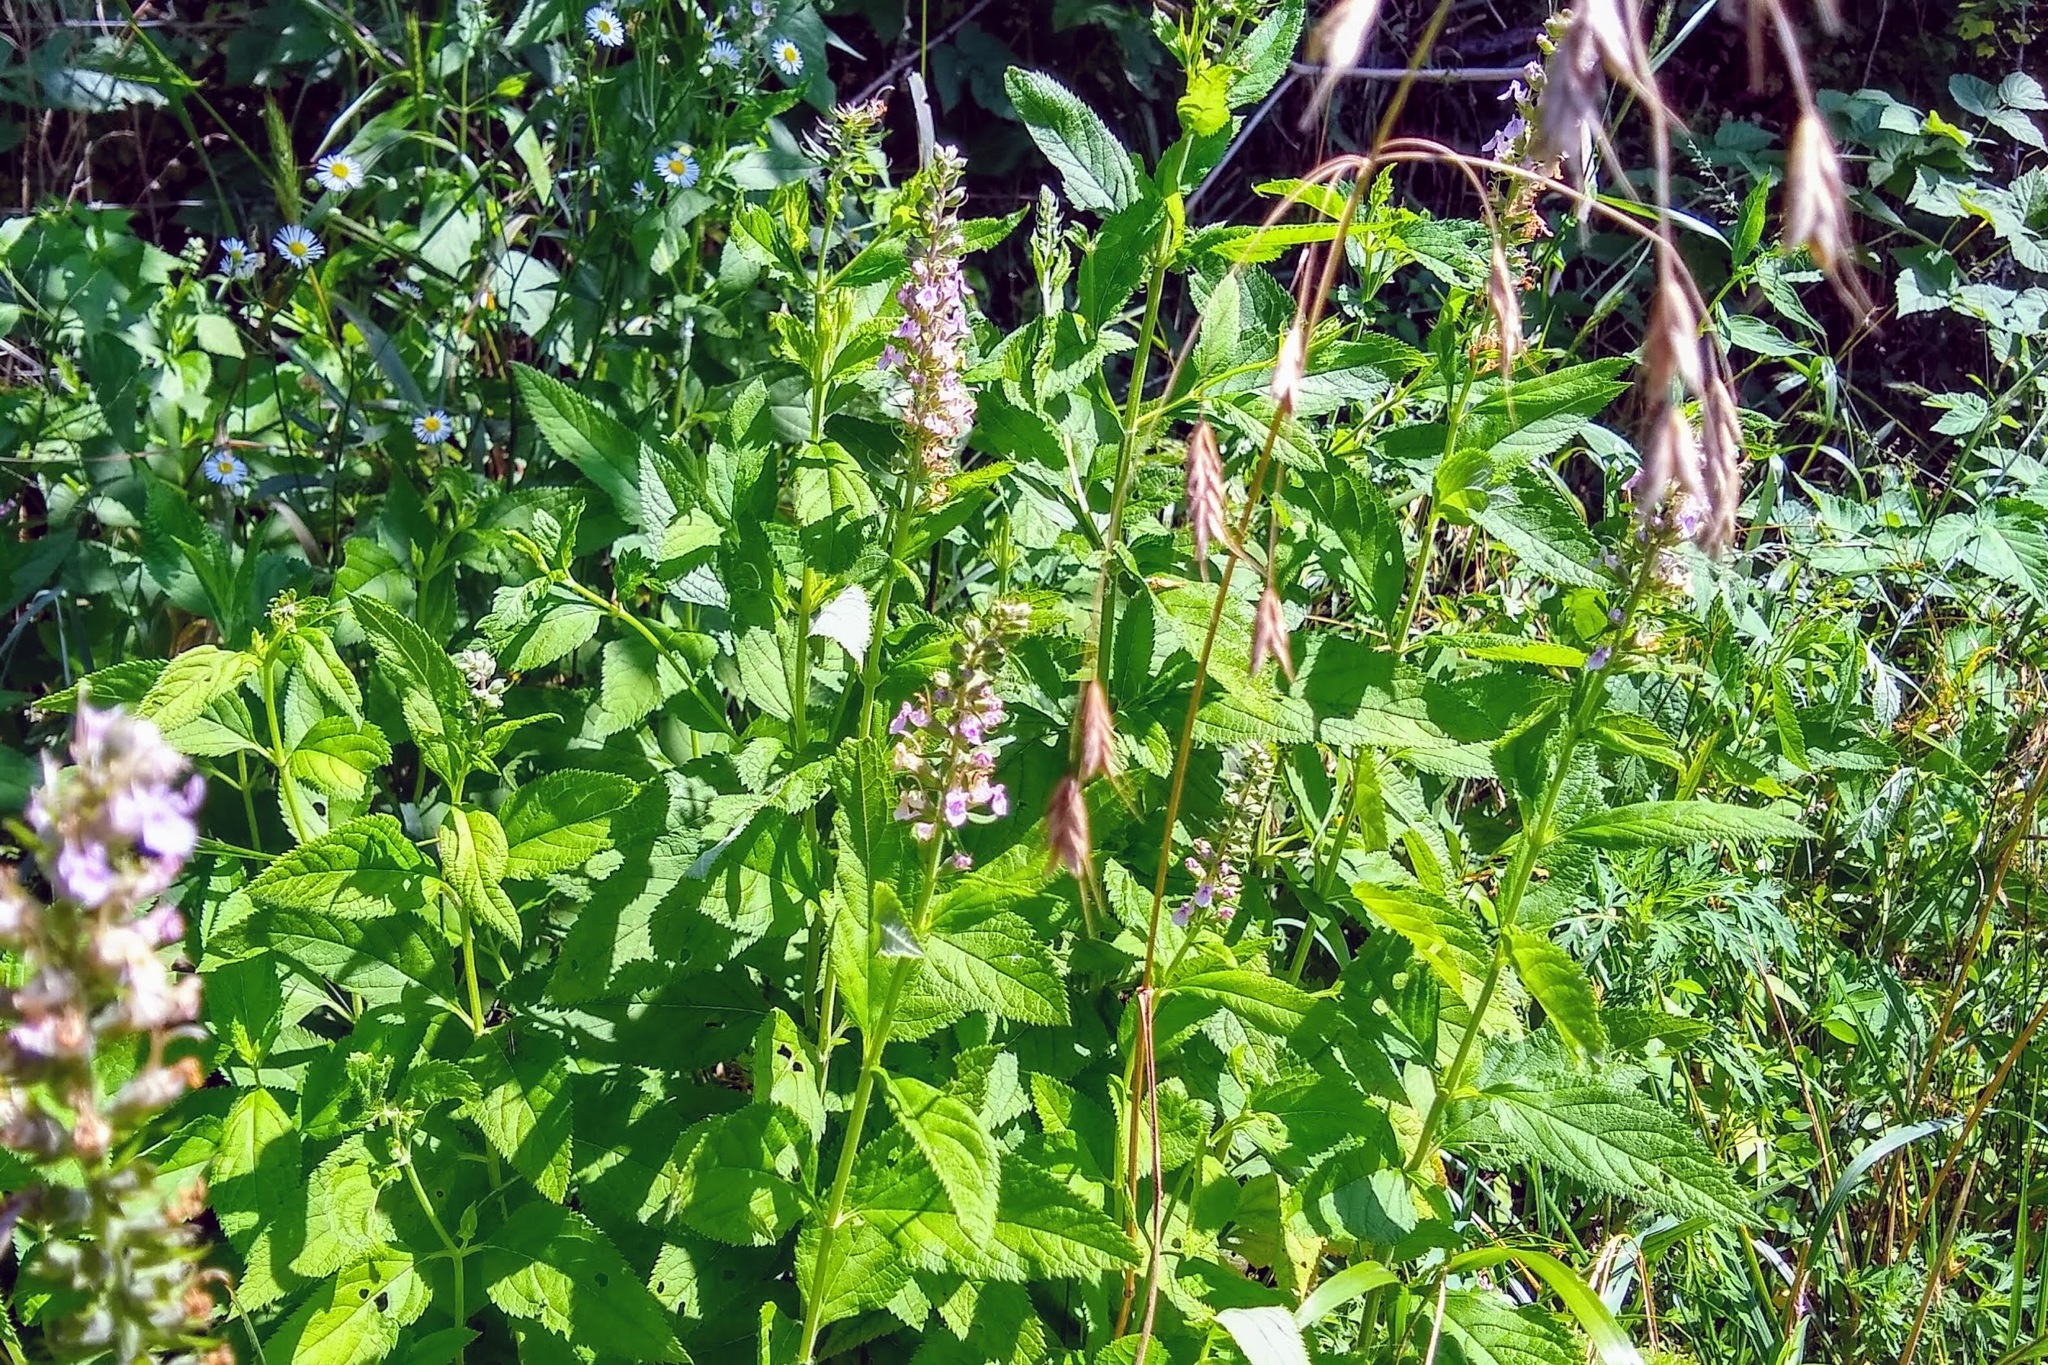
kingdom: Plantae
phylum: Tracheophyta
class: Magnoliopsida
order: Lamiales
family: Lamiaceae
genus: Teucrium
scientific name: Teucrium canadense
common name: American germander
